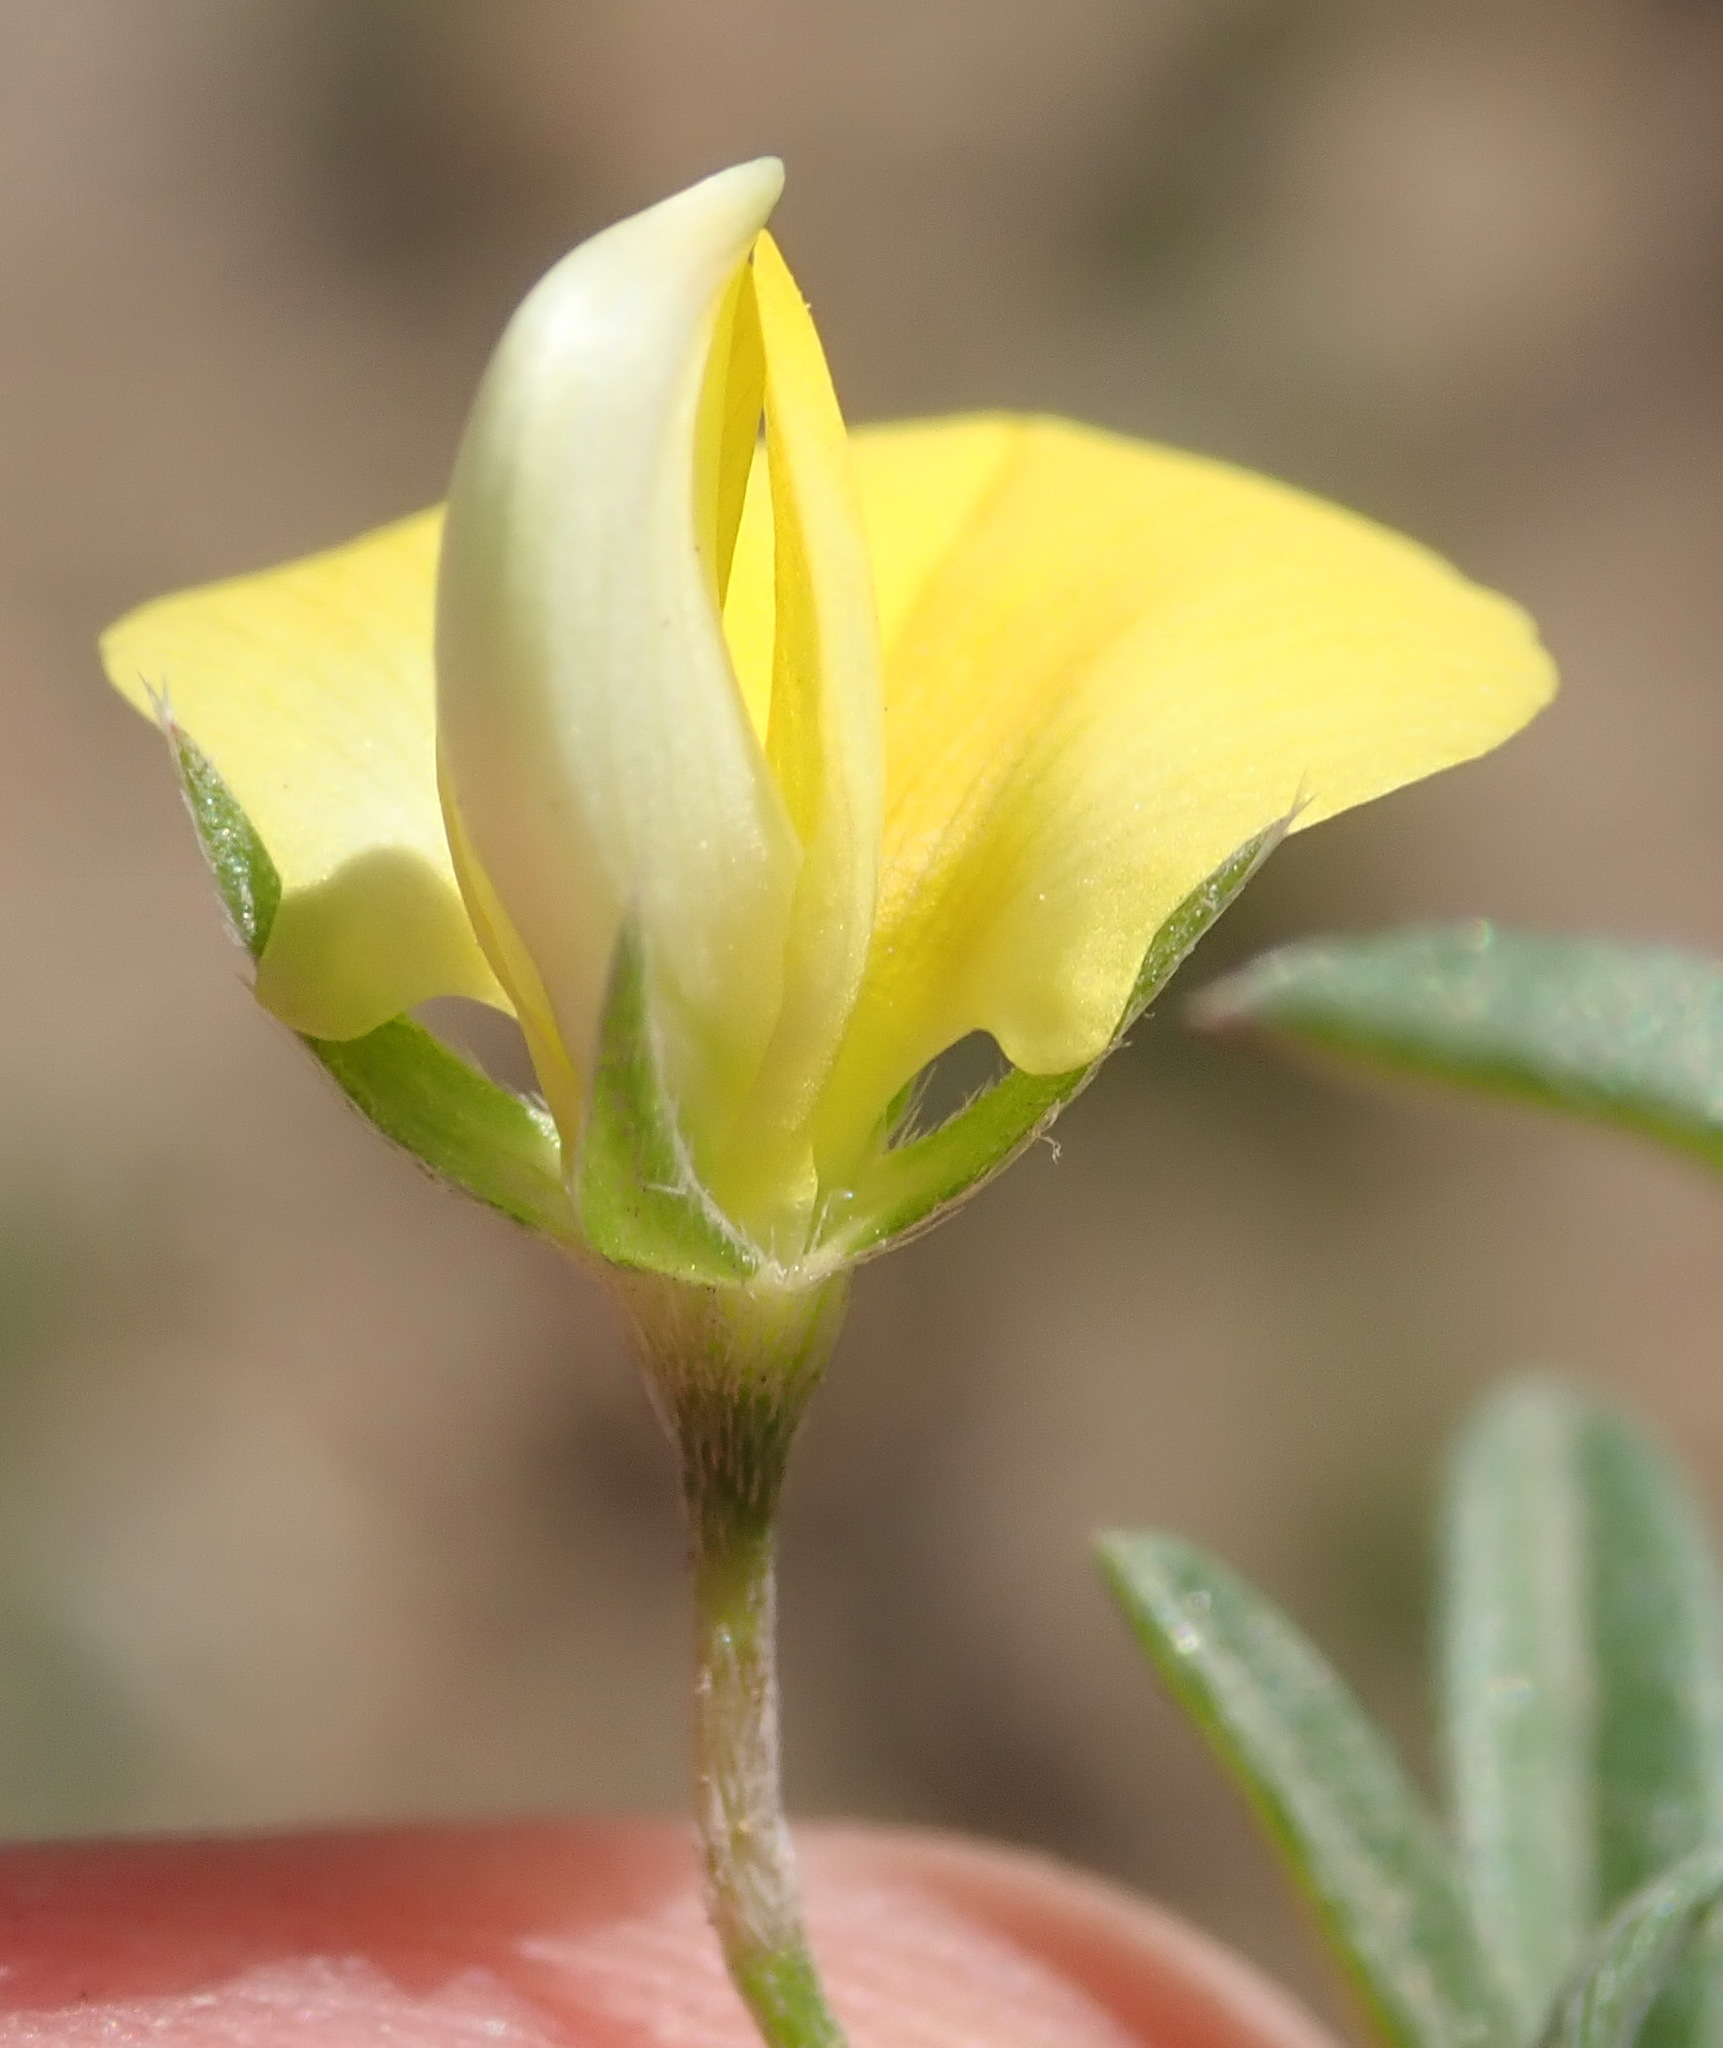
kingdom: Plantae
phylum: Tracheophyta
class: Magnoliopsida
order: Fabales
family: Fabaceae
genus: Lotononis
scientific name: Lotononis pungens
